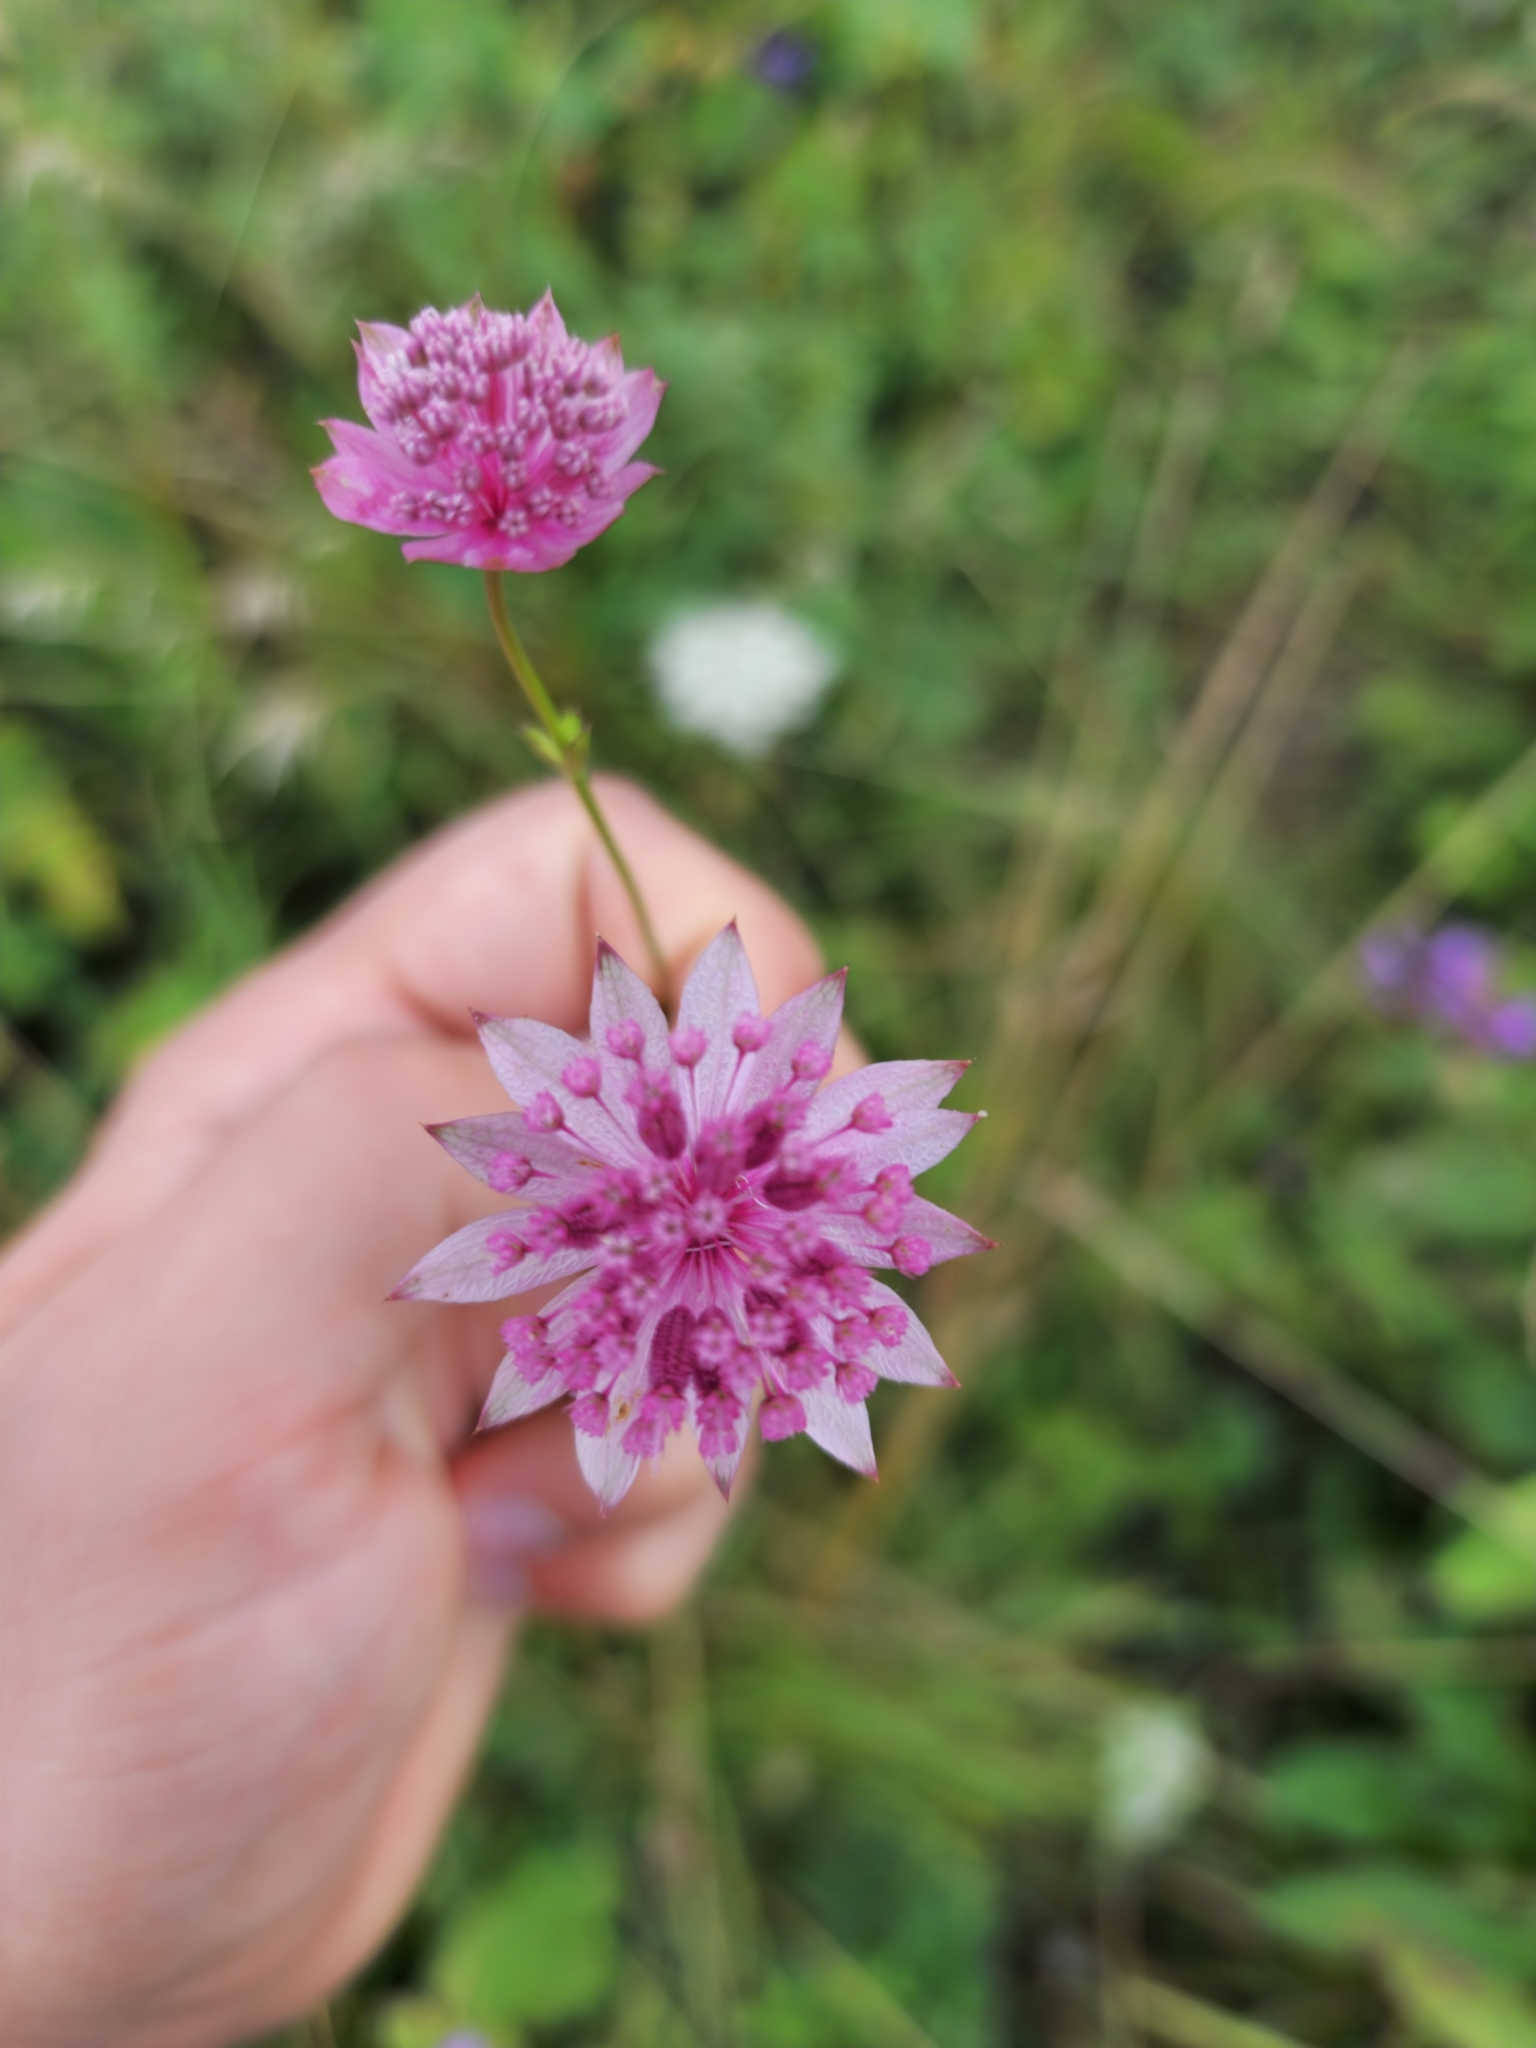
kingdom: Plantae
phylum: Tracheophyta
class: Magnoliopsida
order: Apiales
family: Apiaceae
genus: Astrantia
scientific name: Astrantia trifida
